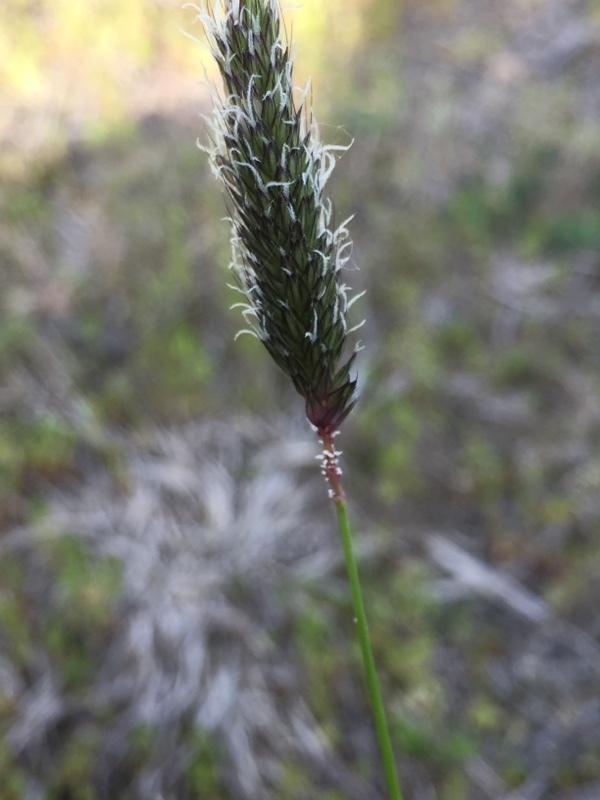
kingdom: Plantae
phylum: Tracheophyta
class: Liliopsida
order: Poales
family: Poaceae
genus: Alopecurus
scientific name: Alopecurus pratensis
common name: Meadow foxtail
